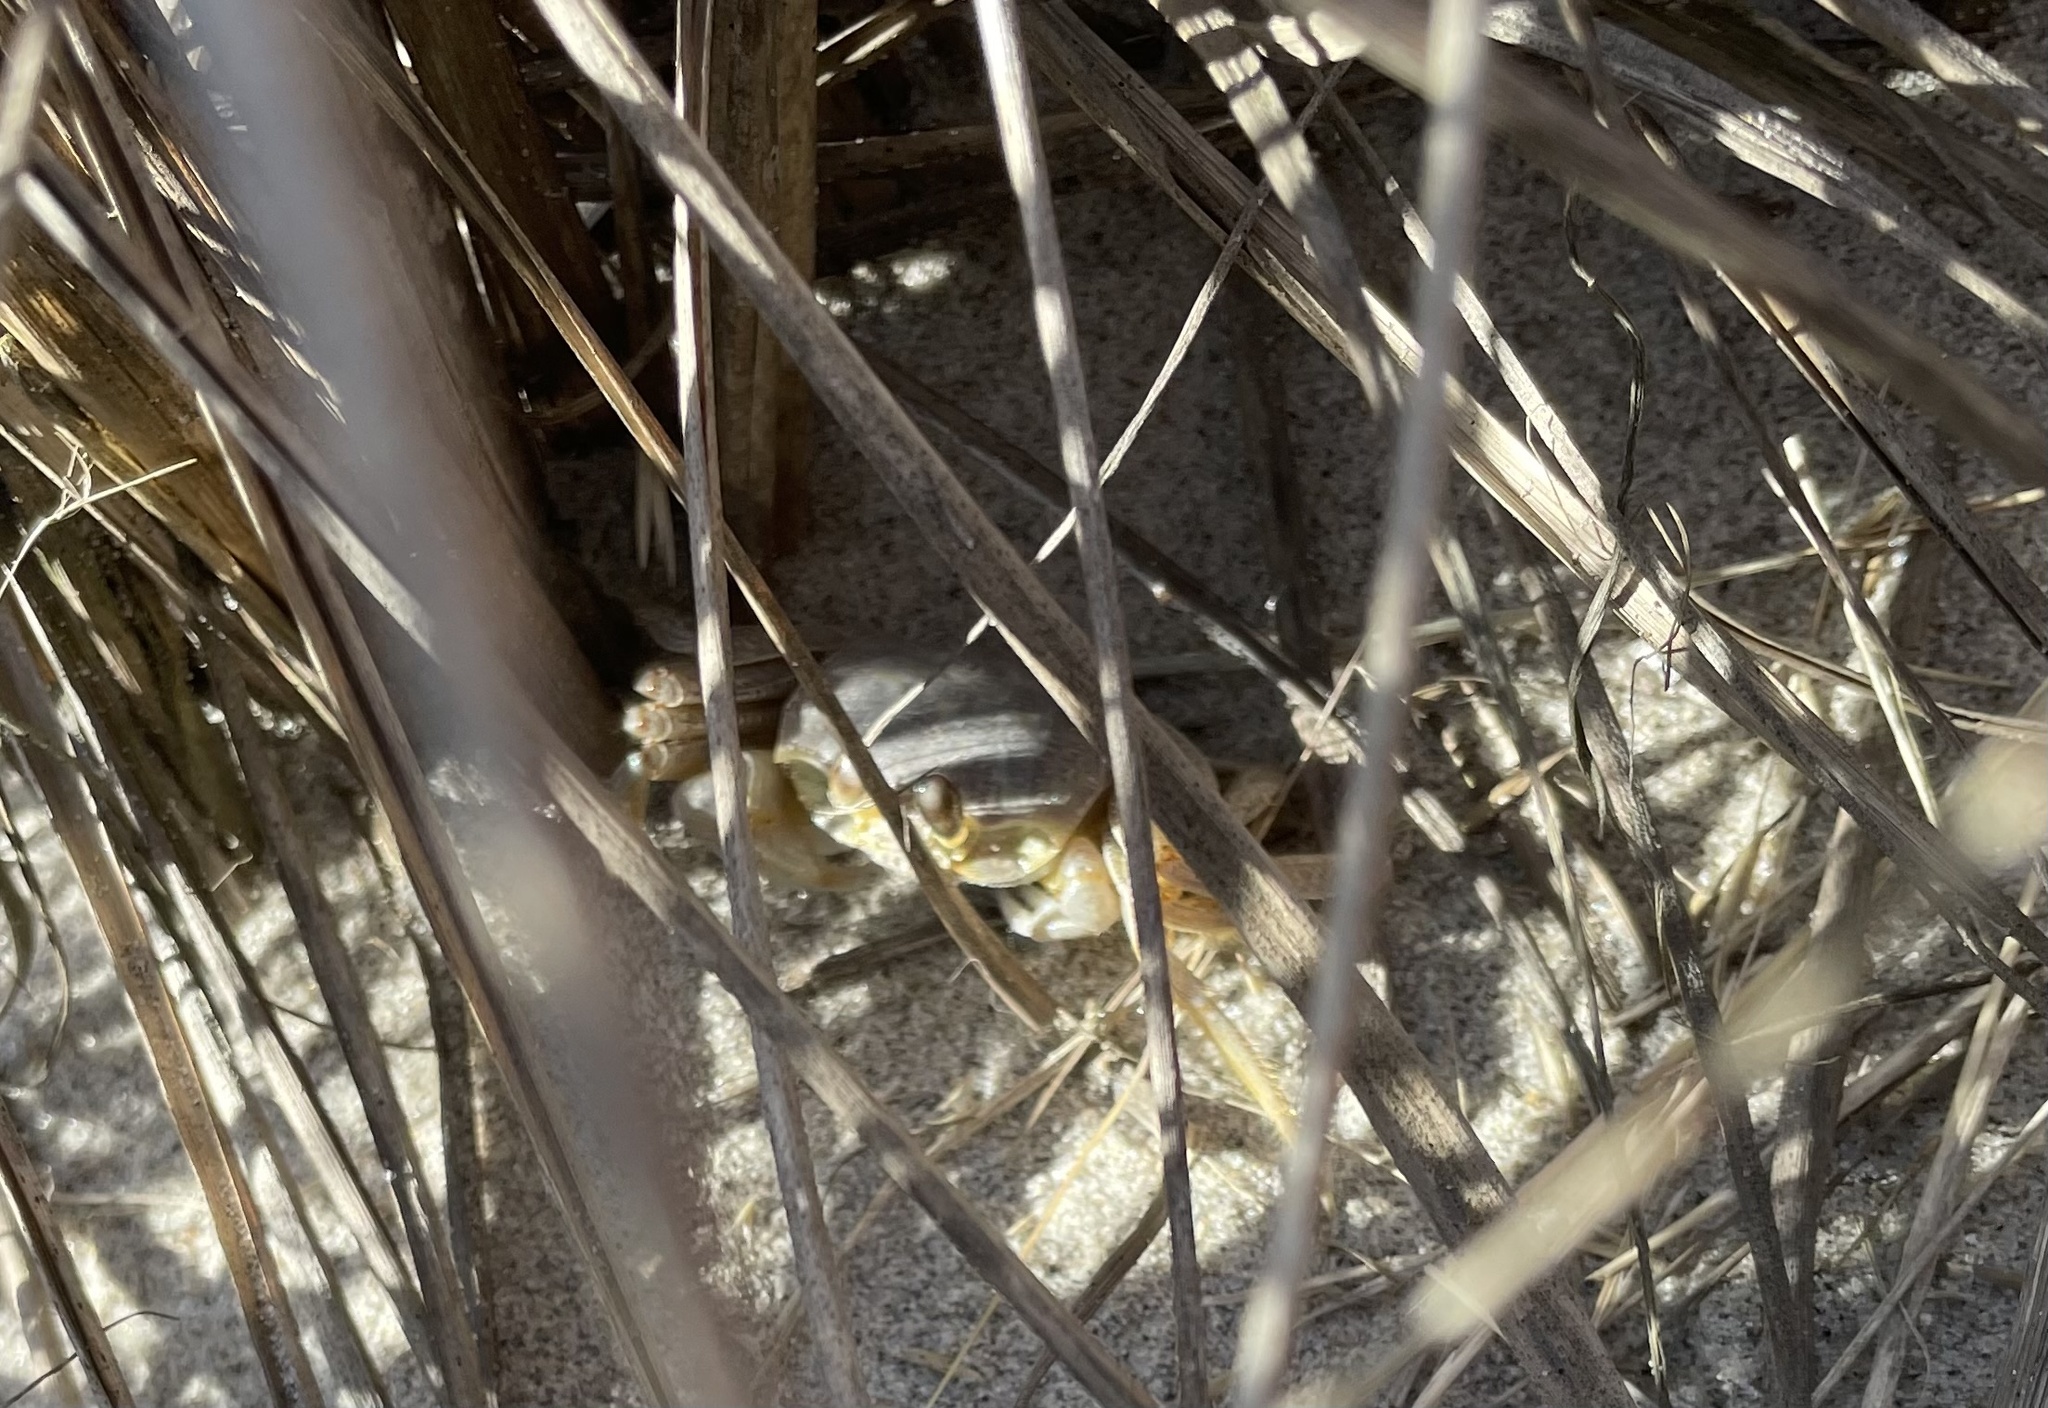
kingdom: Animalia
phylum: Arthropoda
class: Malacostraca
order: Decapoda
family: Ocypodidae
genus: Ocypode
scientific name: Ocypode quadrata
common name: Ghost crab
